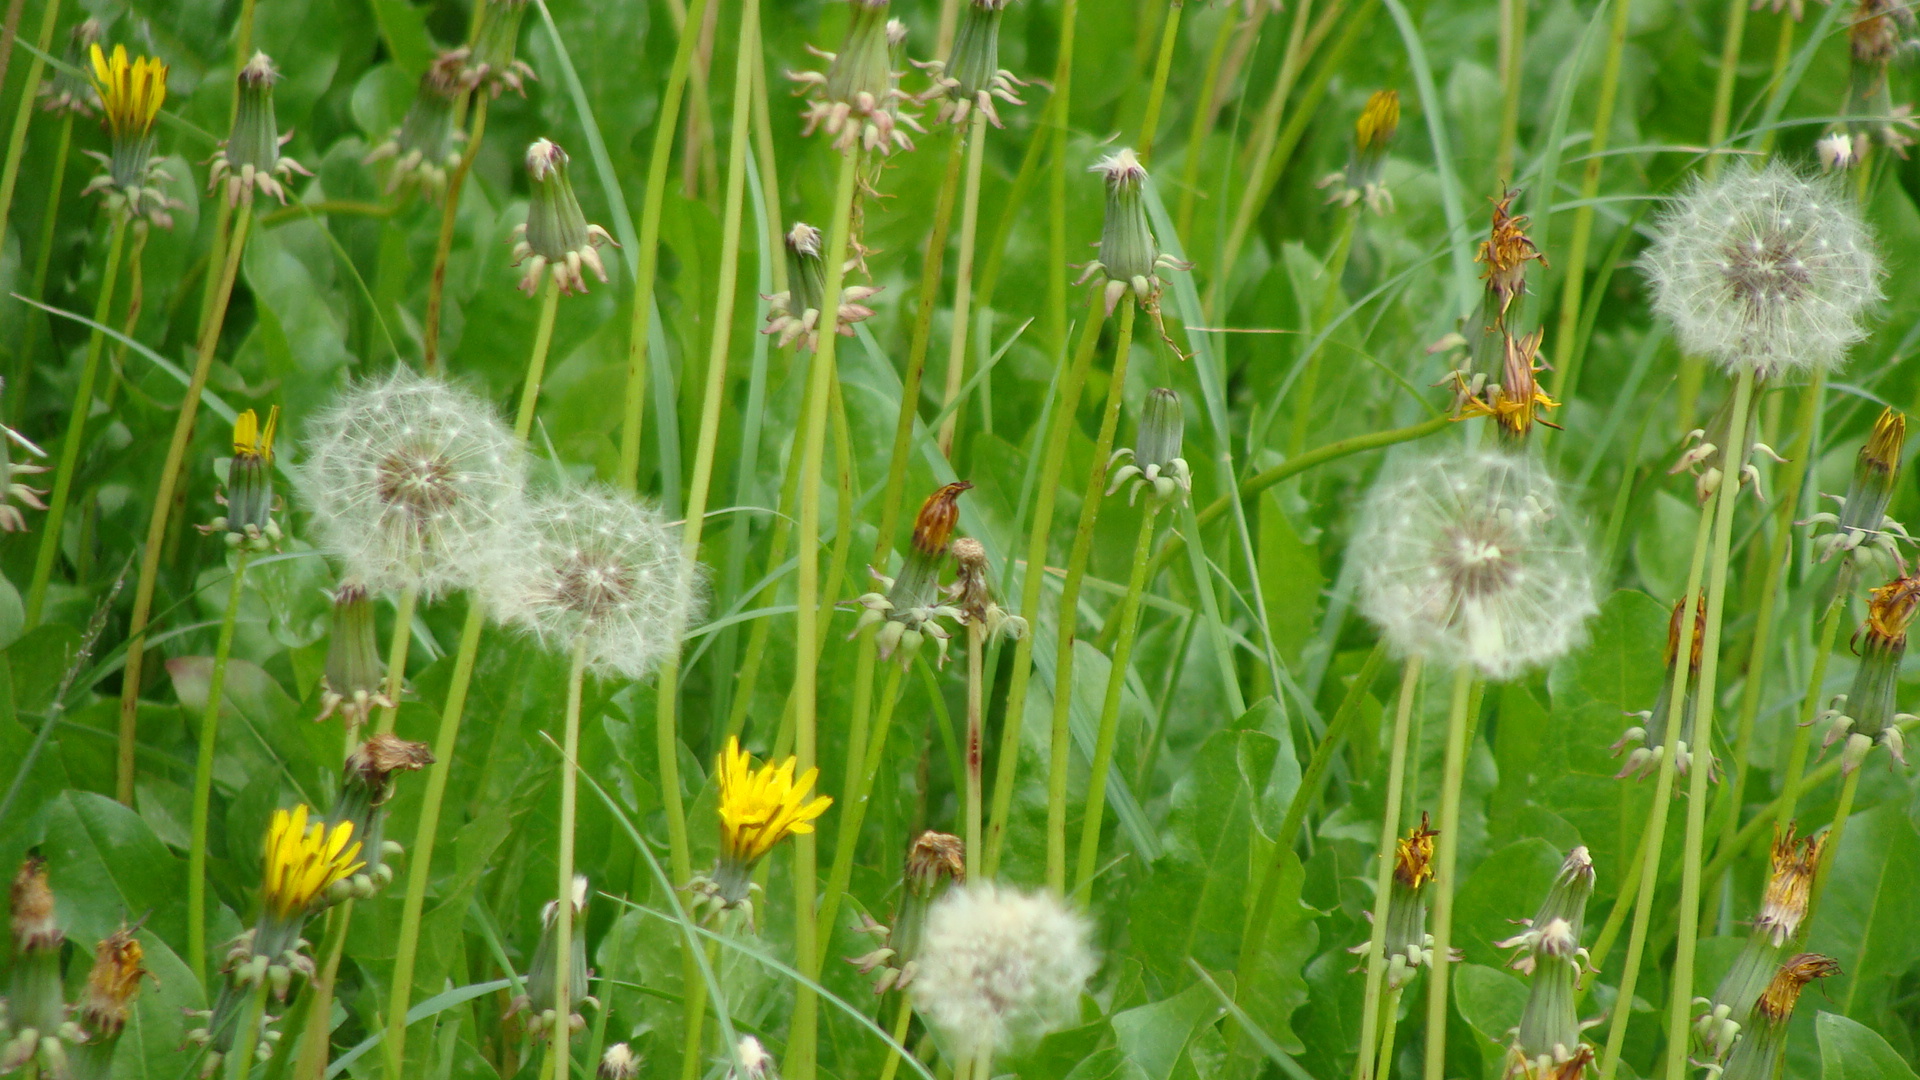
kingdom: Plantae
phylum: Tracheophyta
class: Magnoliopsida
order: Asterales
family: Asteraceae
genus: Taraxacum
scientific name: Taraxacum officinale
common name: Common dandelion
